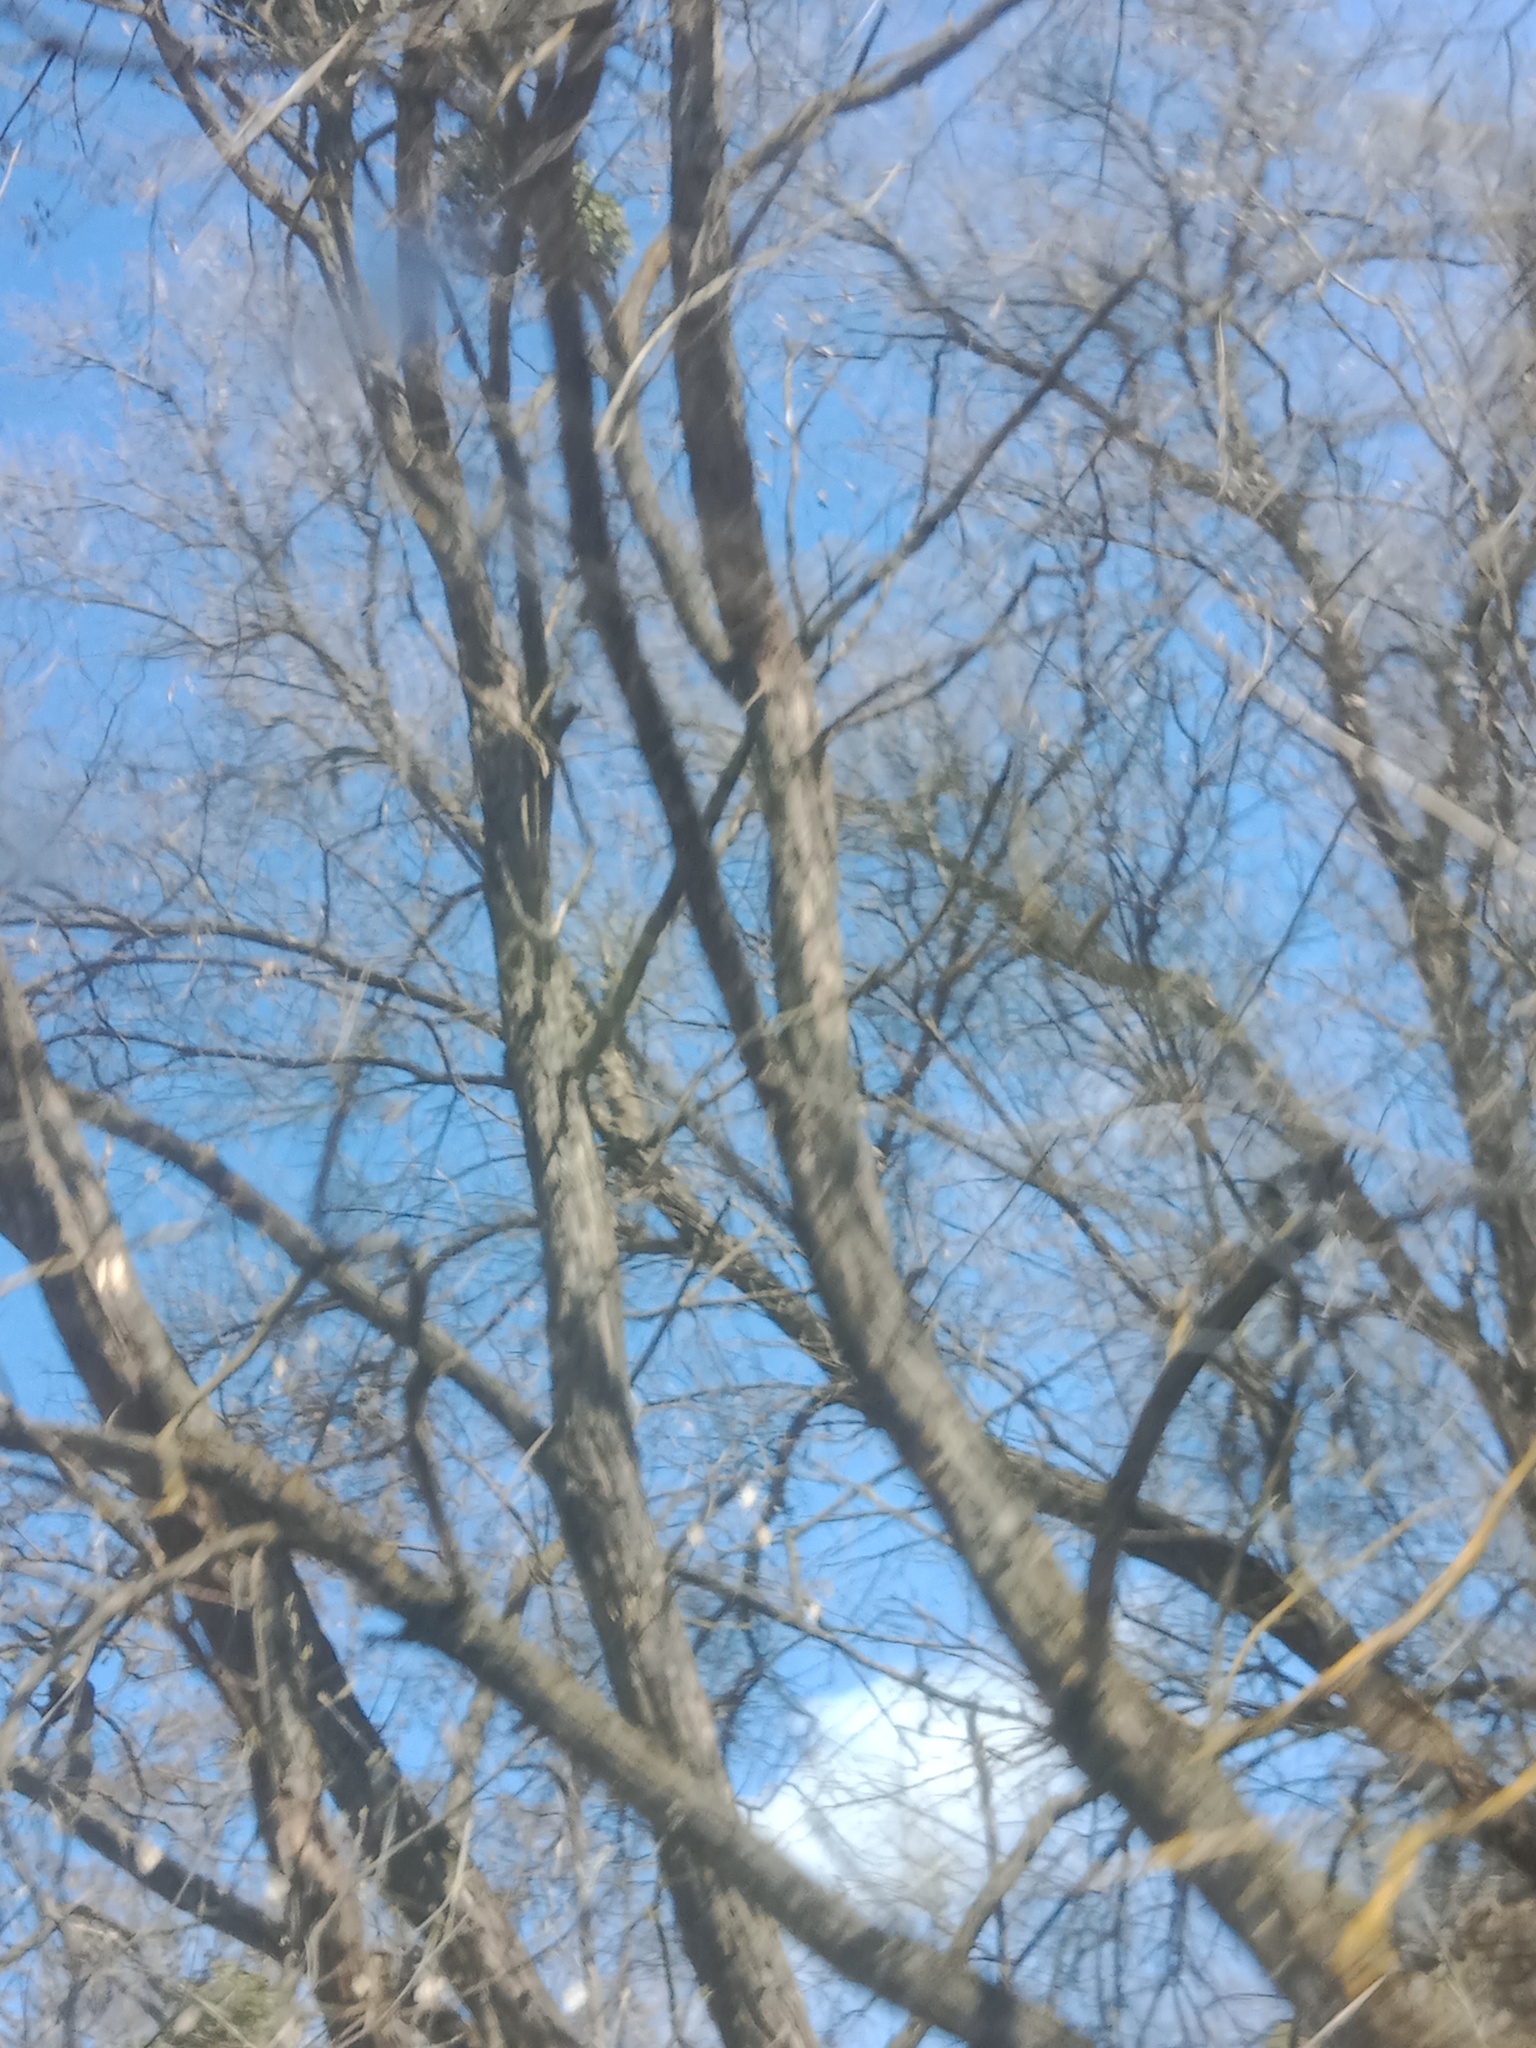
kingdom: Plantae
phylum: Tracheophyta
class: Magnoliopsida
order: Santalales
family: Viscaceae
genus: Viscum
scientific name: Viscum album
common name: Mistletoe
